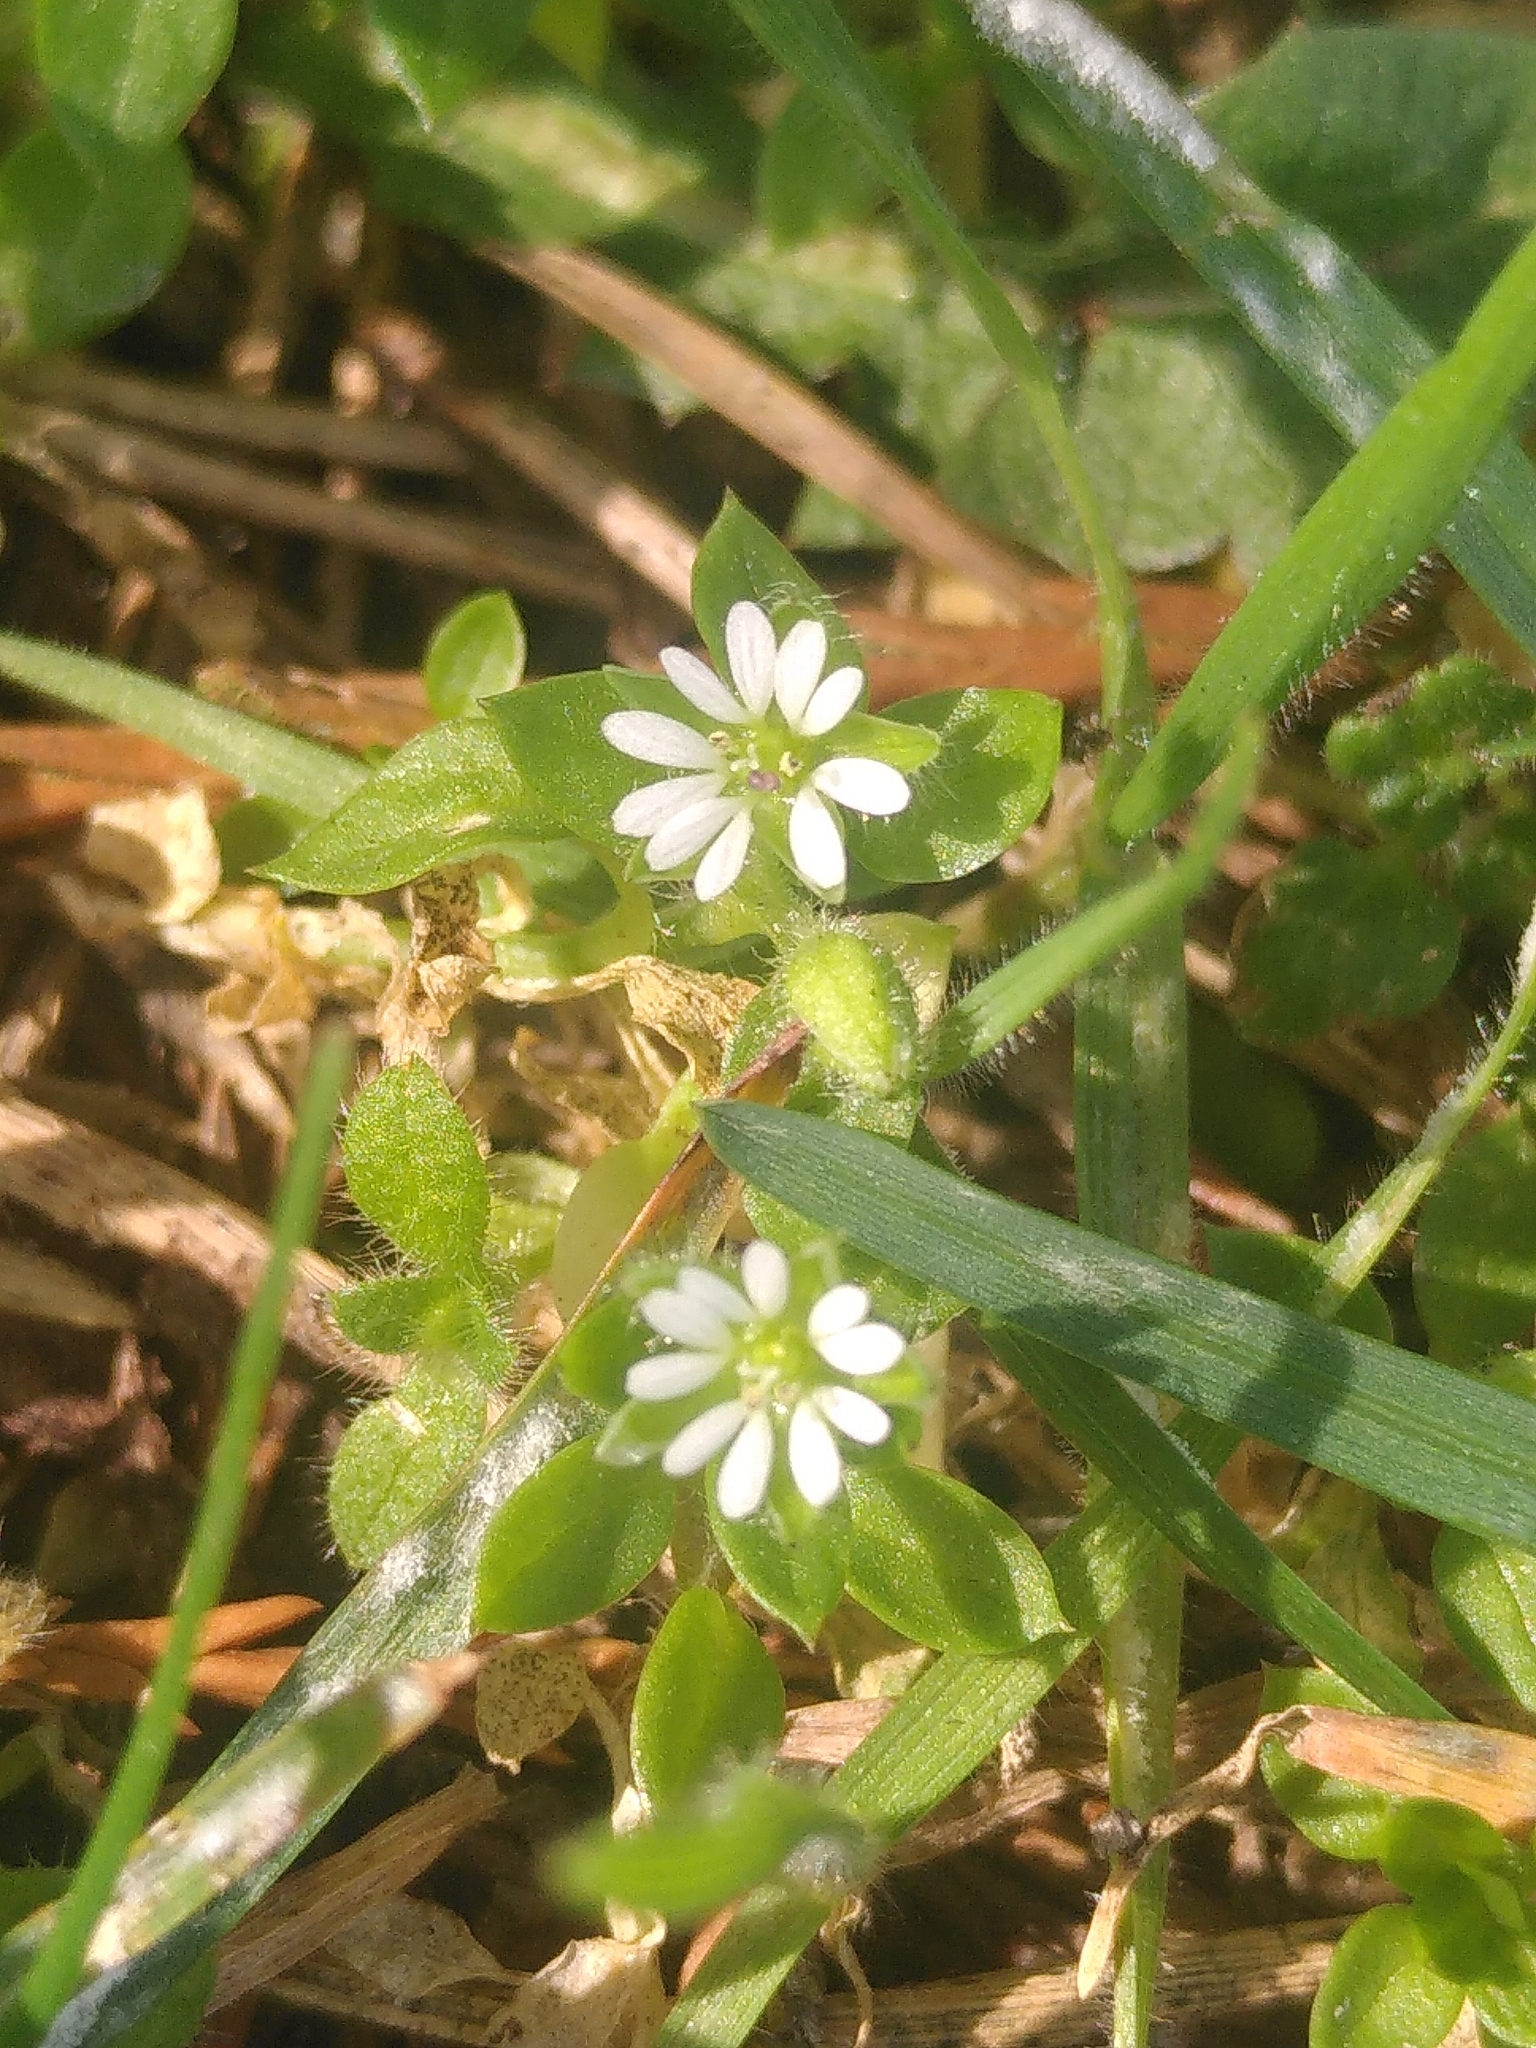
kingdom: Plantae
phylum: Tracheophyta
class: Magnoliopsida
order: Caryophyllales
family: Caryophyllaceae
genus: Stellaria
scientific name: Stellaria media
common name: Common chickweed
